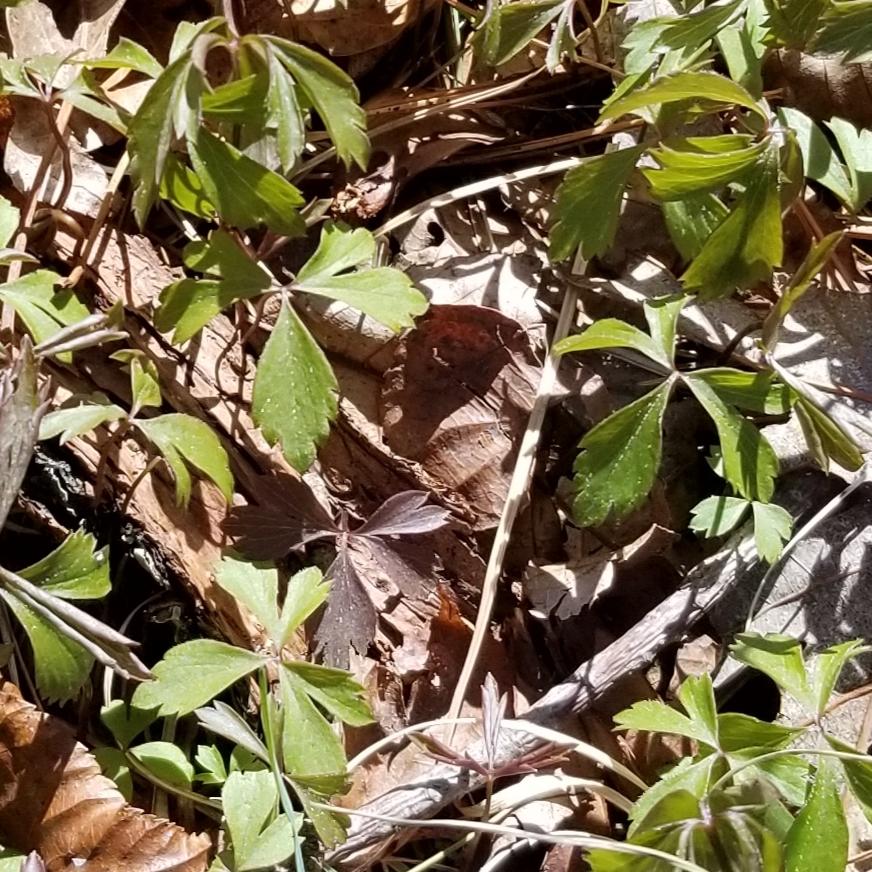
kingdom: Plantae
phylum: Tracheophyta
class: Magnoliopsida
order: Ranunculales
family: Ranunculaceae
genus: Anemone
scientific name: Anemone quinquefolia
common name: Wood anemone
